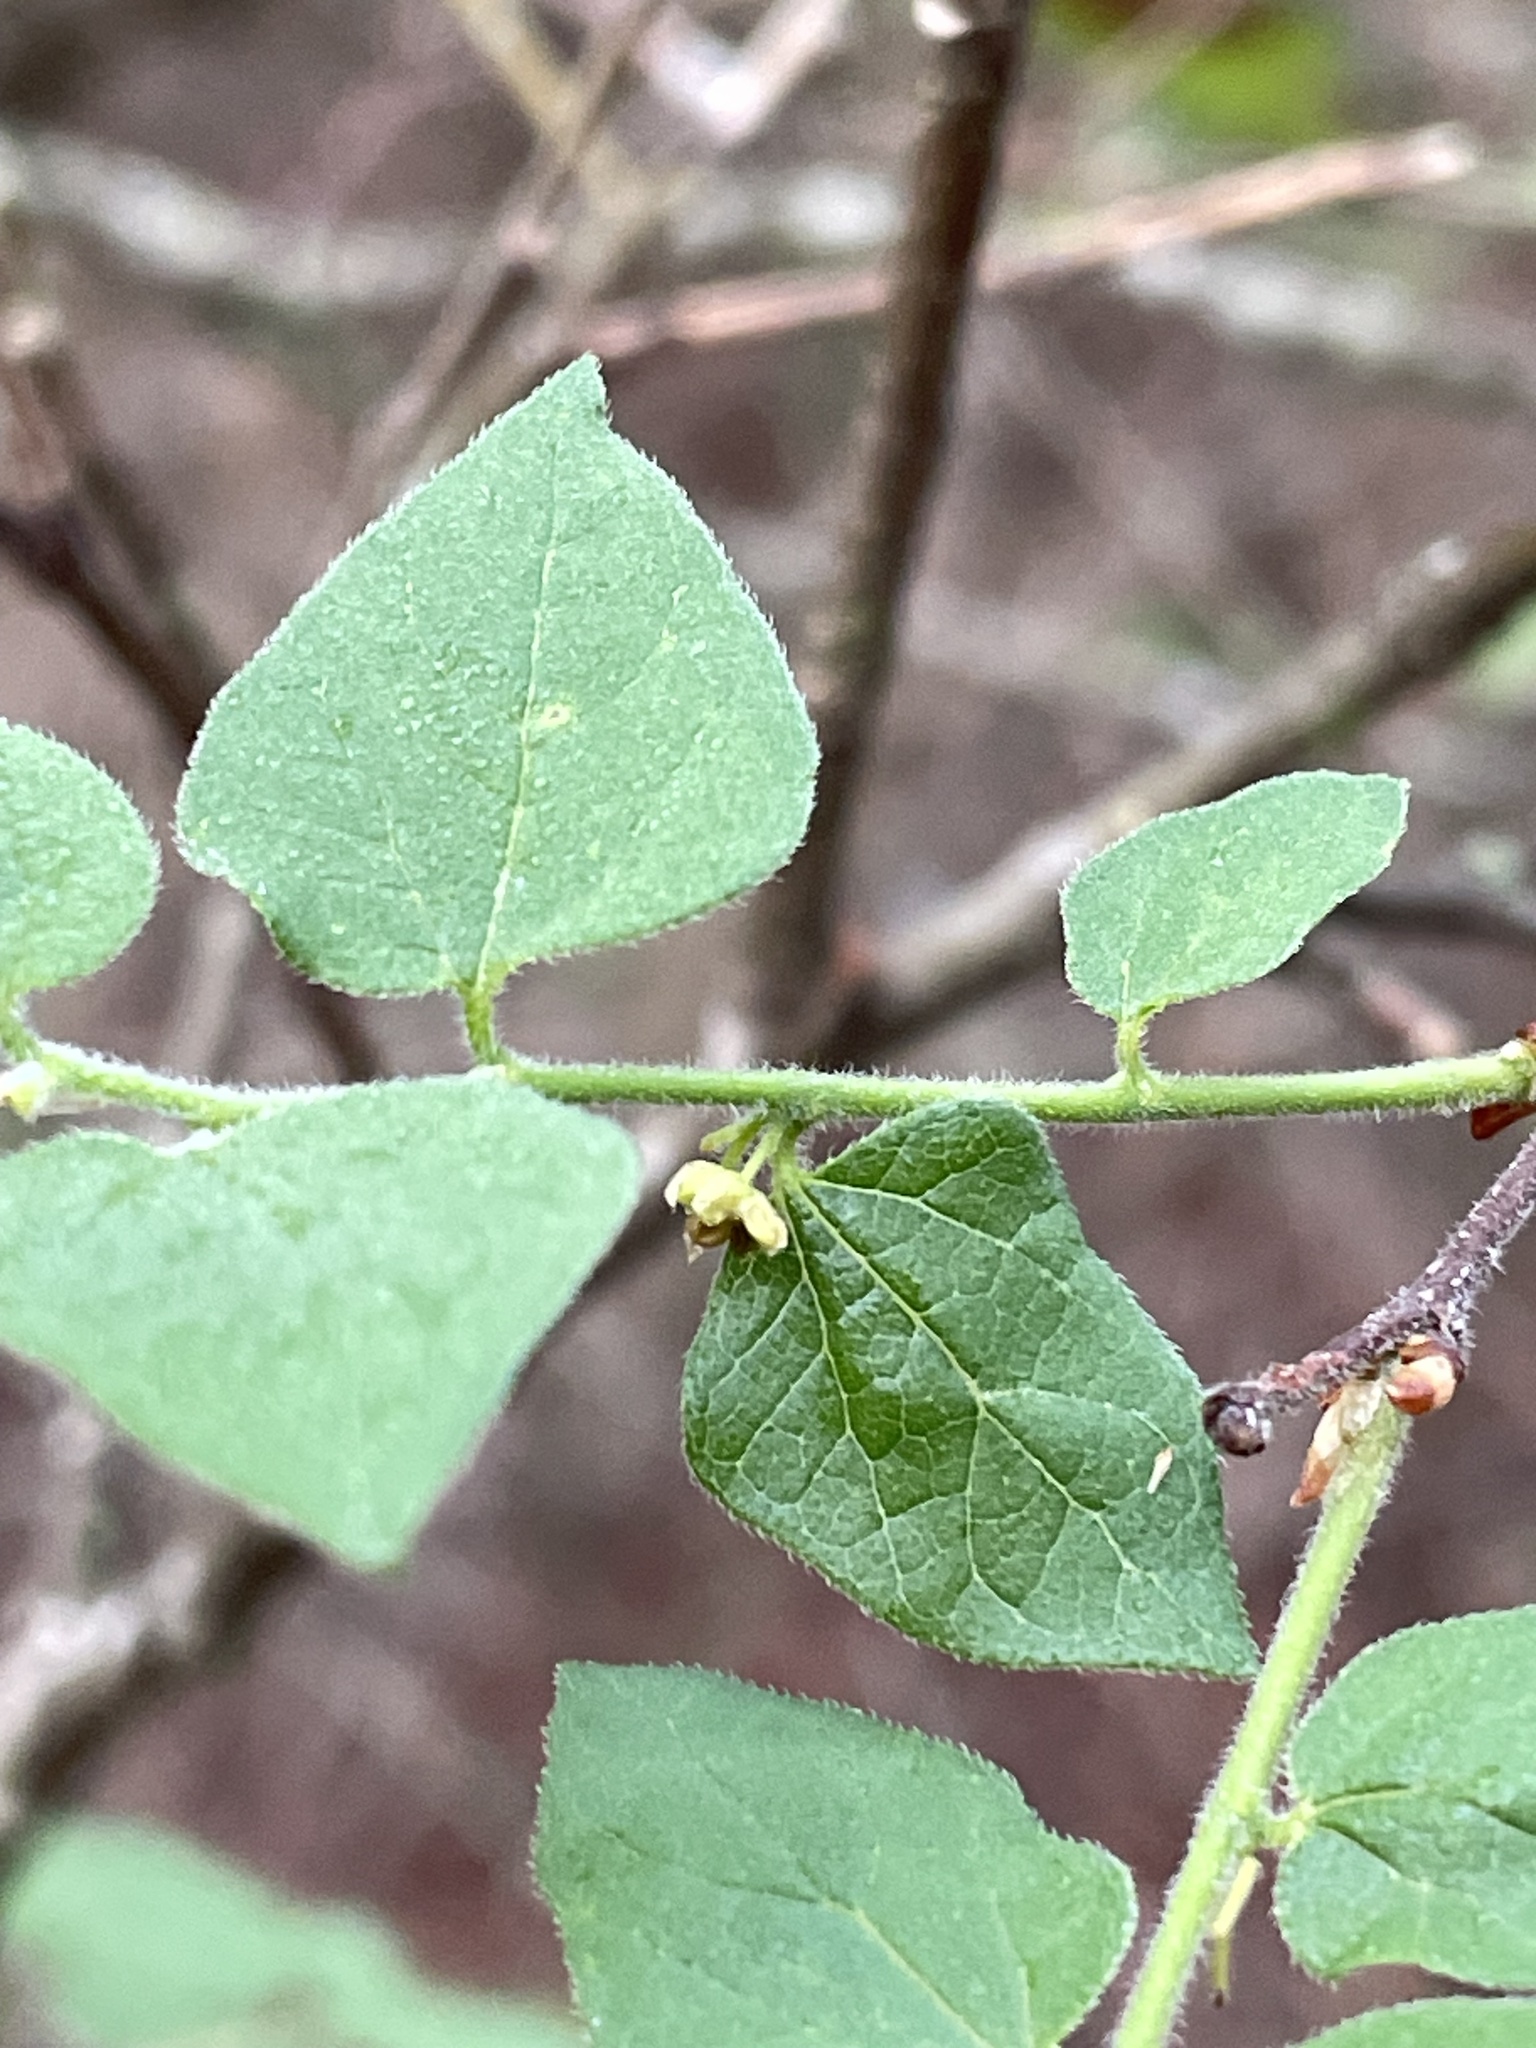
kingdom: Plantae
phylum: Tracheophyta
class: Magnoliopsida
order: Rosales
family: Cannabaceae
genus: Celtis
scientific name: Celtis reticulata
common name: Netleaf hackberry
